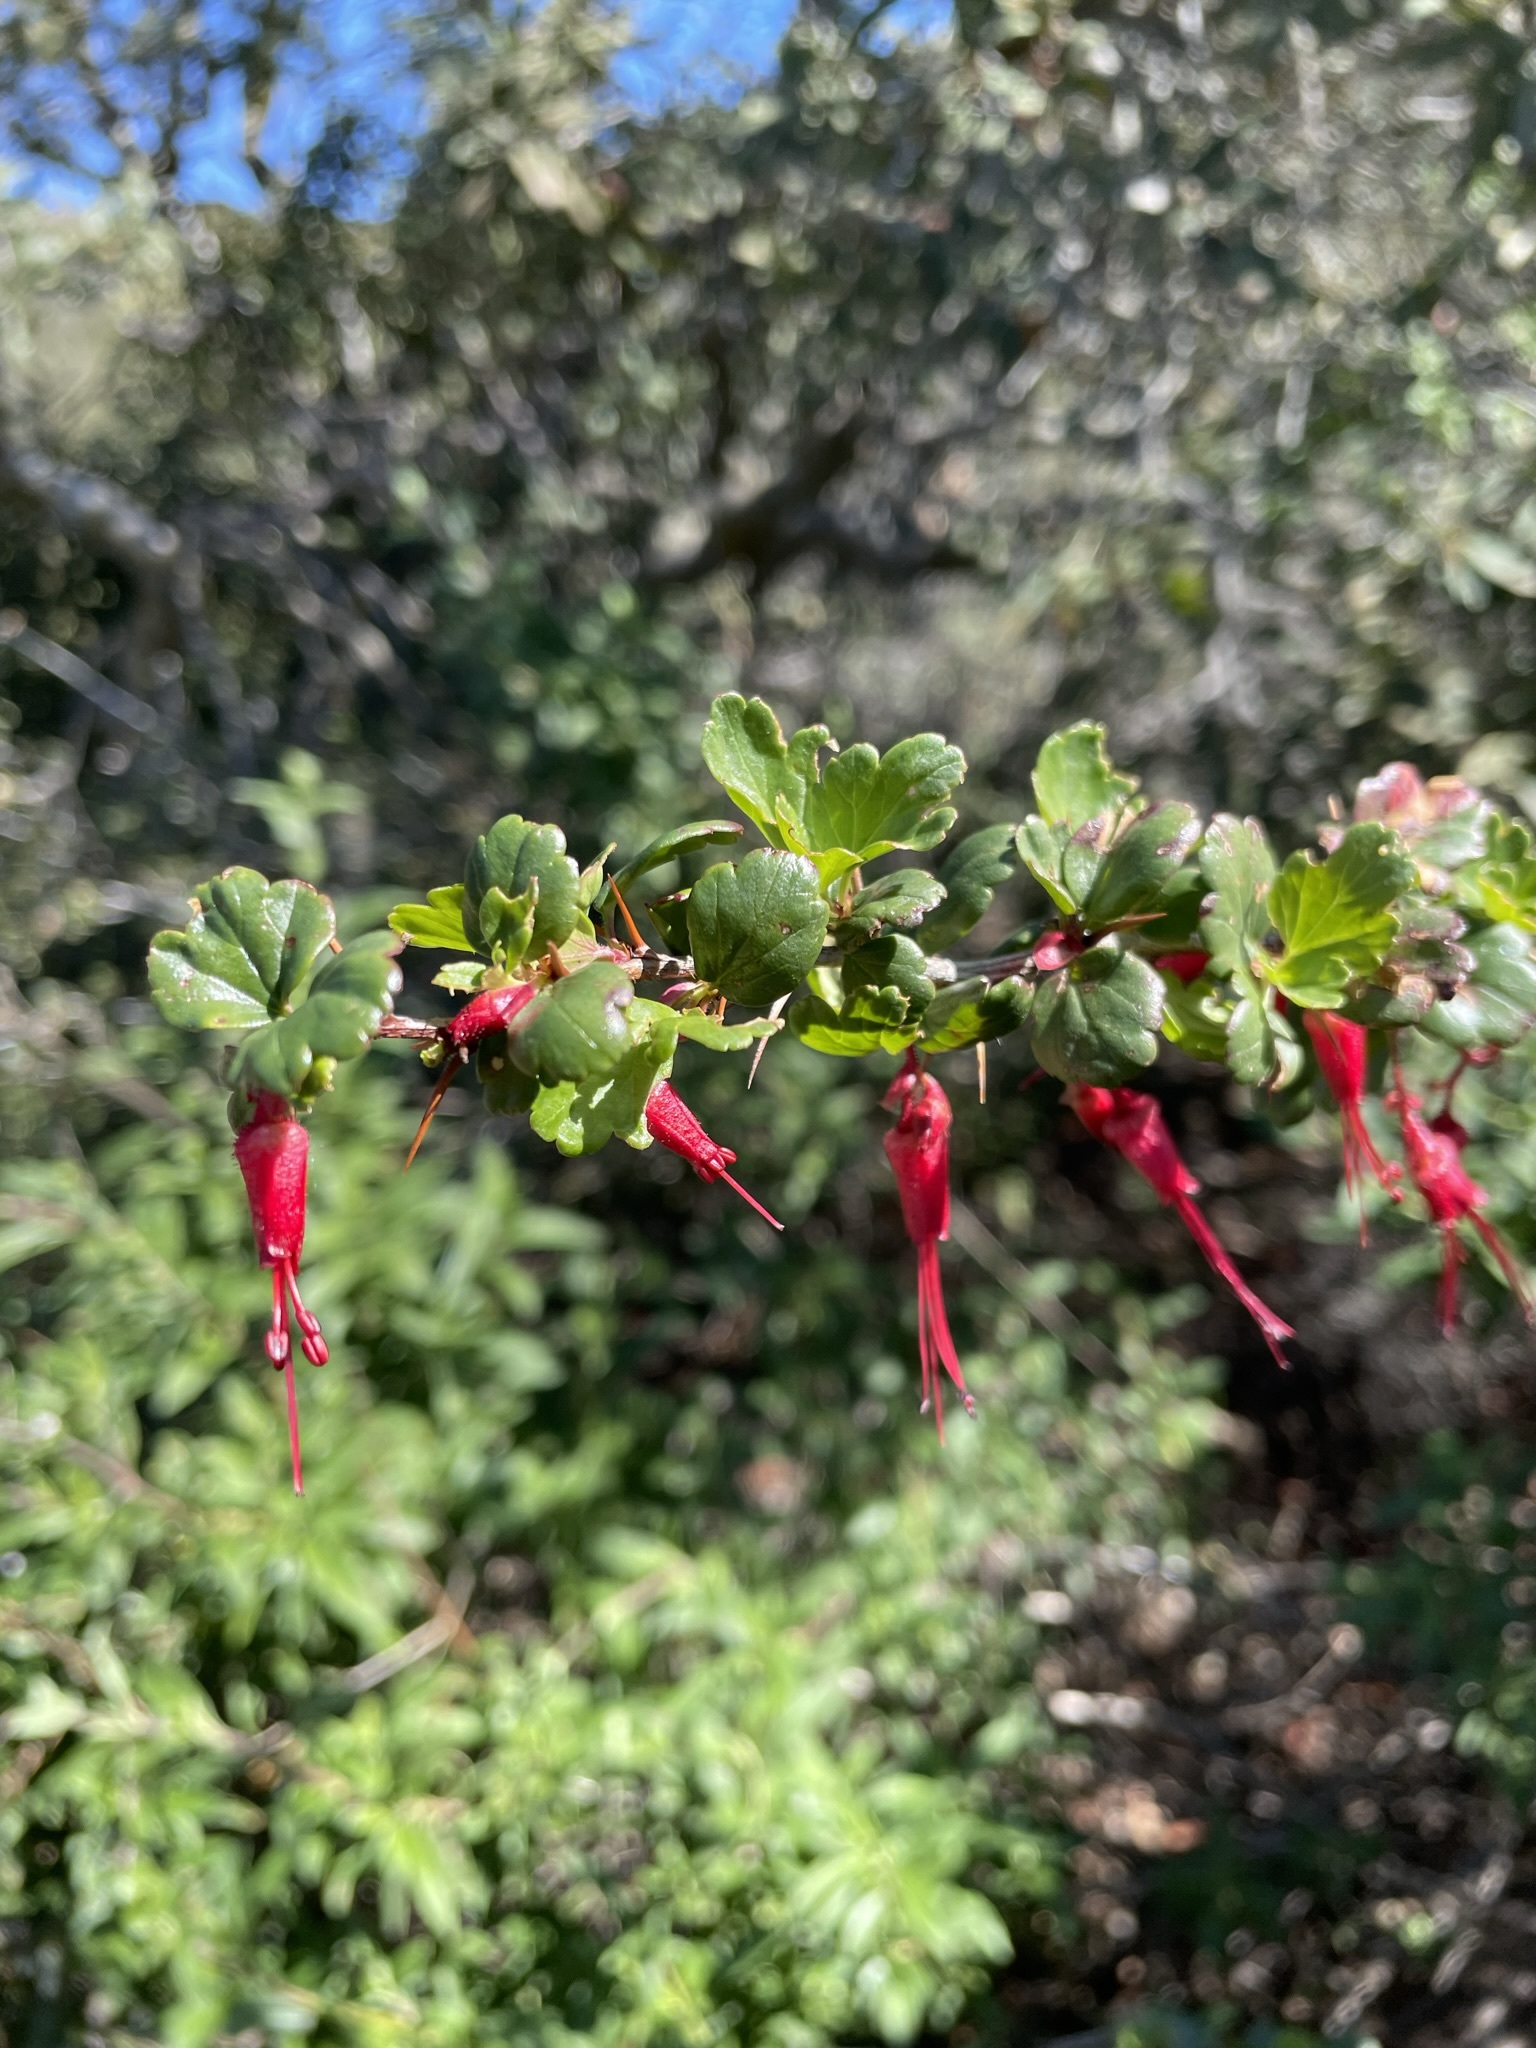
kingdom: Plantae
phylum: Tracheophyta
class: Magnoliopsida
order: Saxifragales
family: Grossulariaceae
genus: Ribes
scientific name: Ribes speciosum
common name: Fuchsia-flower gooseberry
